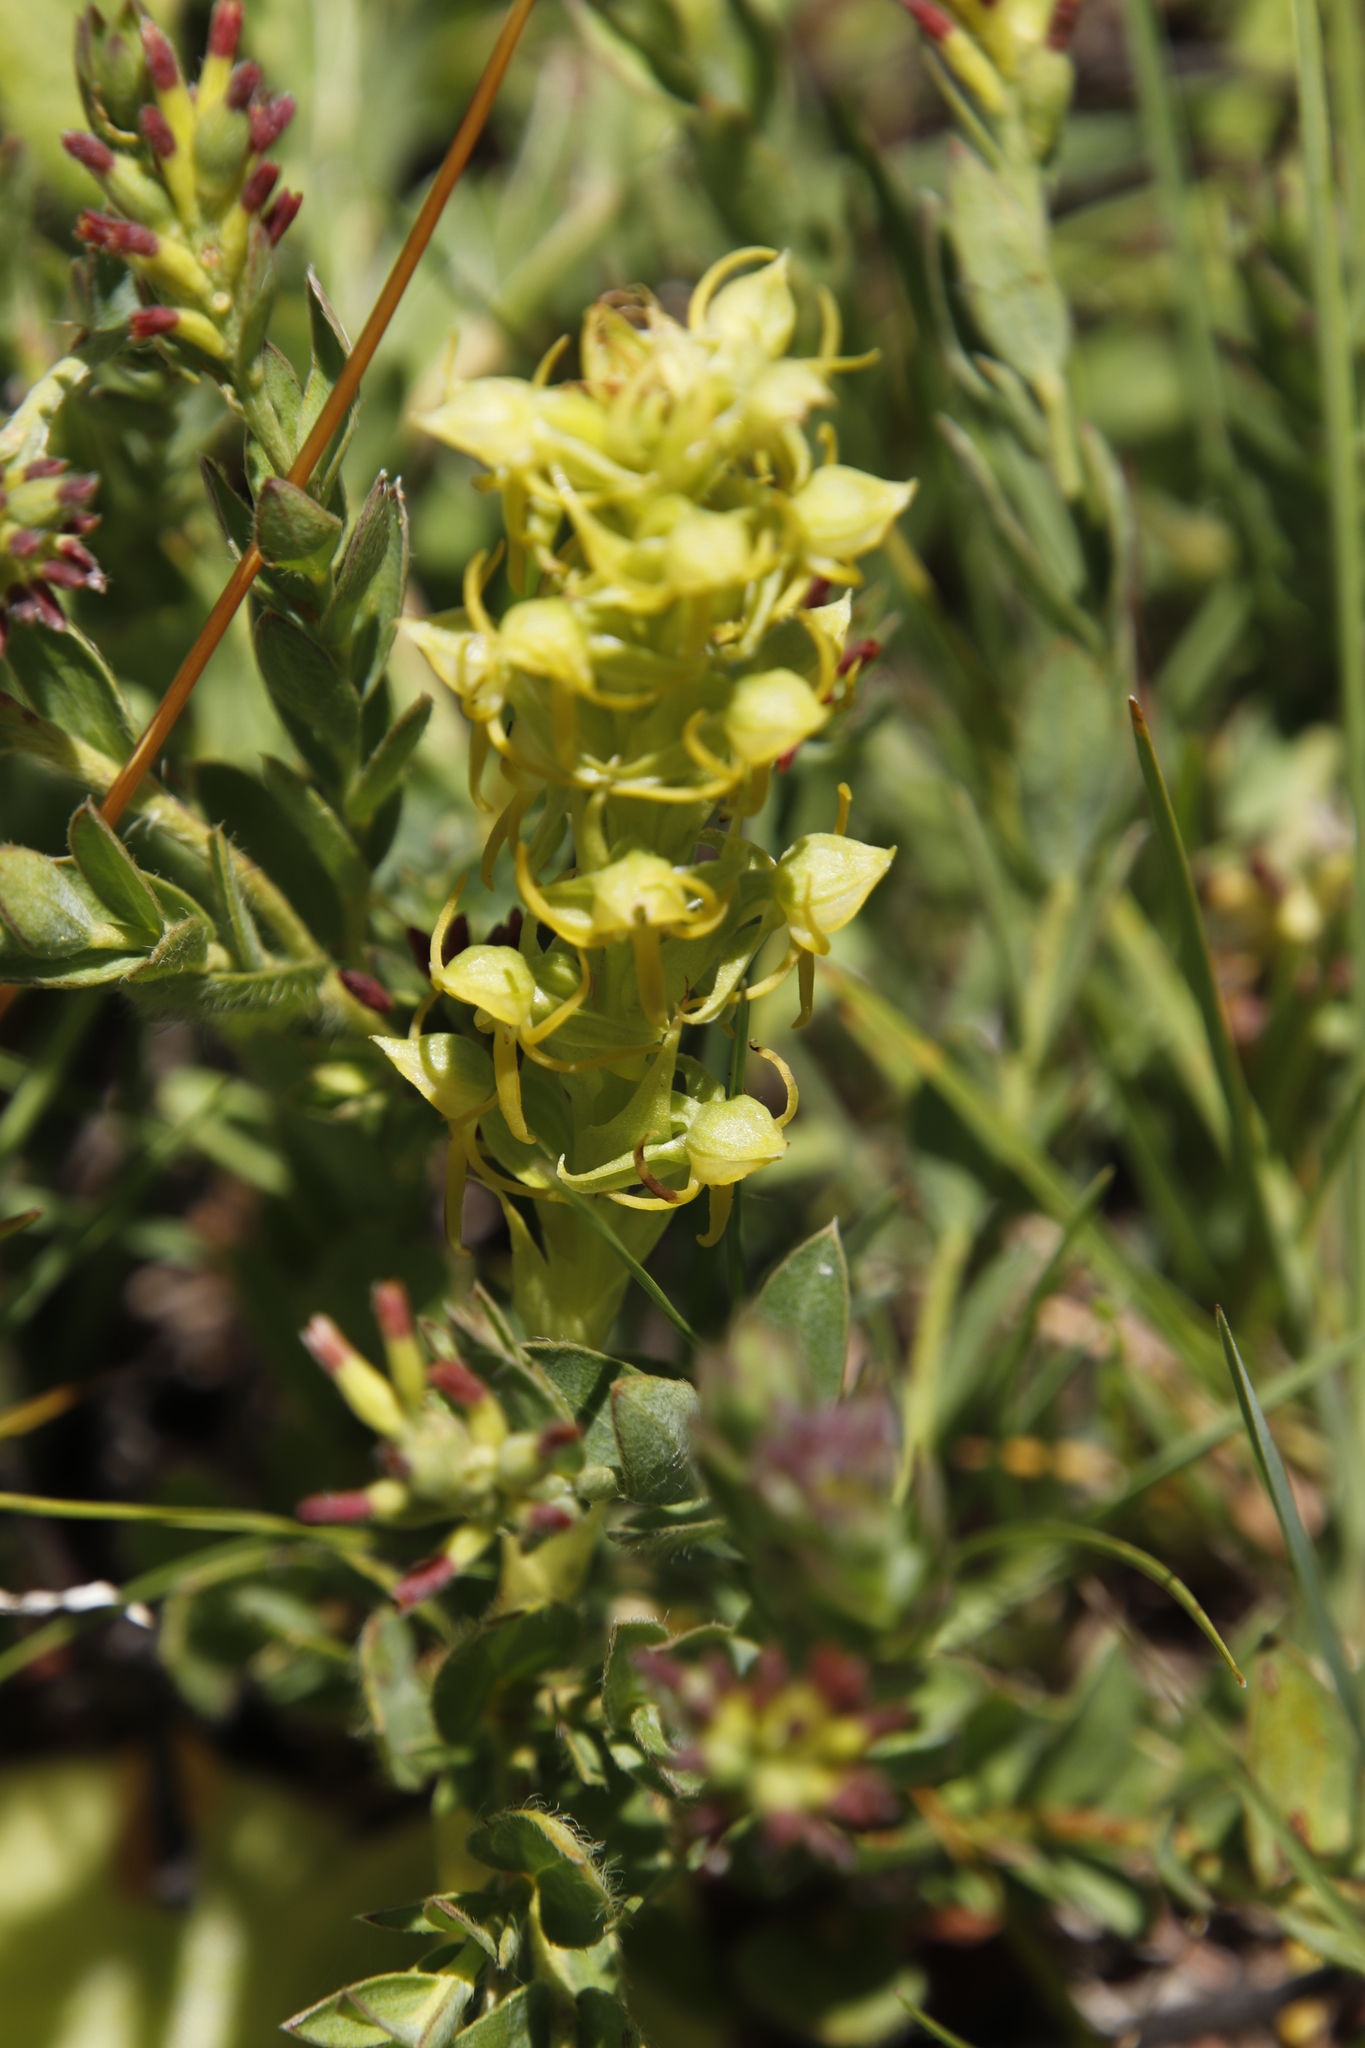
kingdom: Plantae
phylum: Tracheophyta
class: Liliopsida
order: Asparagales
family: Orchidaceae
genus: Habenaria
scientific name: Habenaria lithophila
